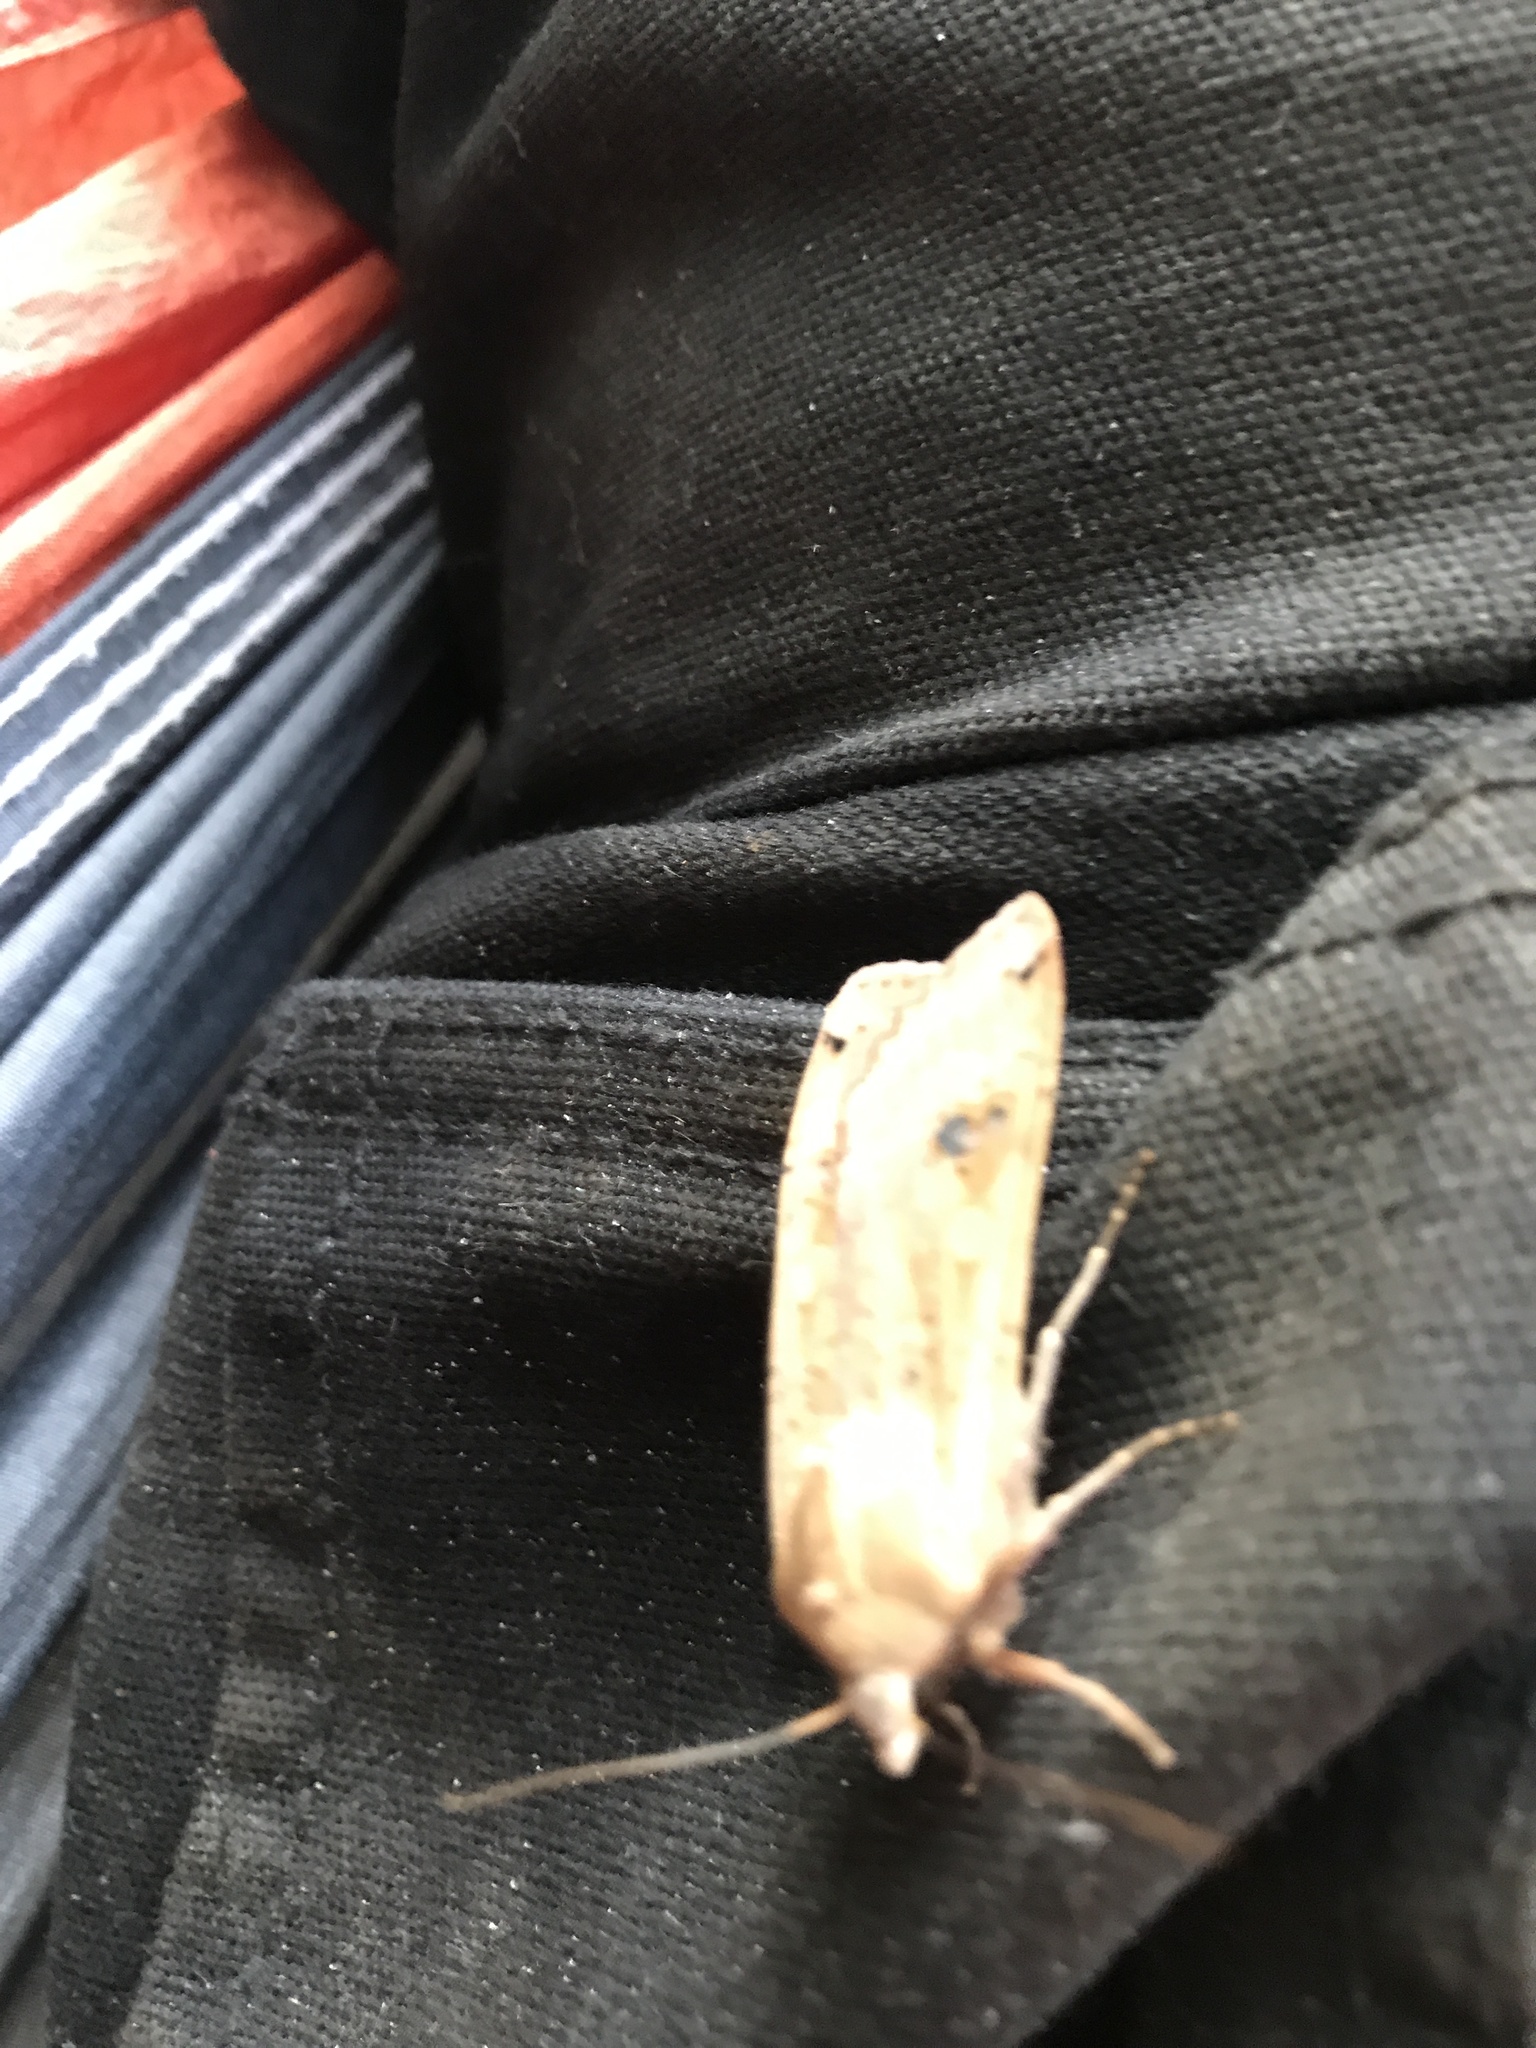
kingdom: Animalia
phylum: Arthropoda
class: Insecta
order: Lepidoptera
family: Noctuidae
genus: Noctua
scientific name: Noctua pronuba
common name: Large yellow underwing
